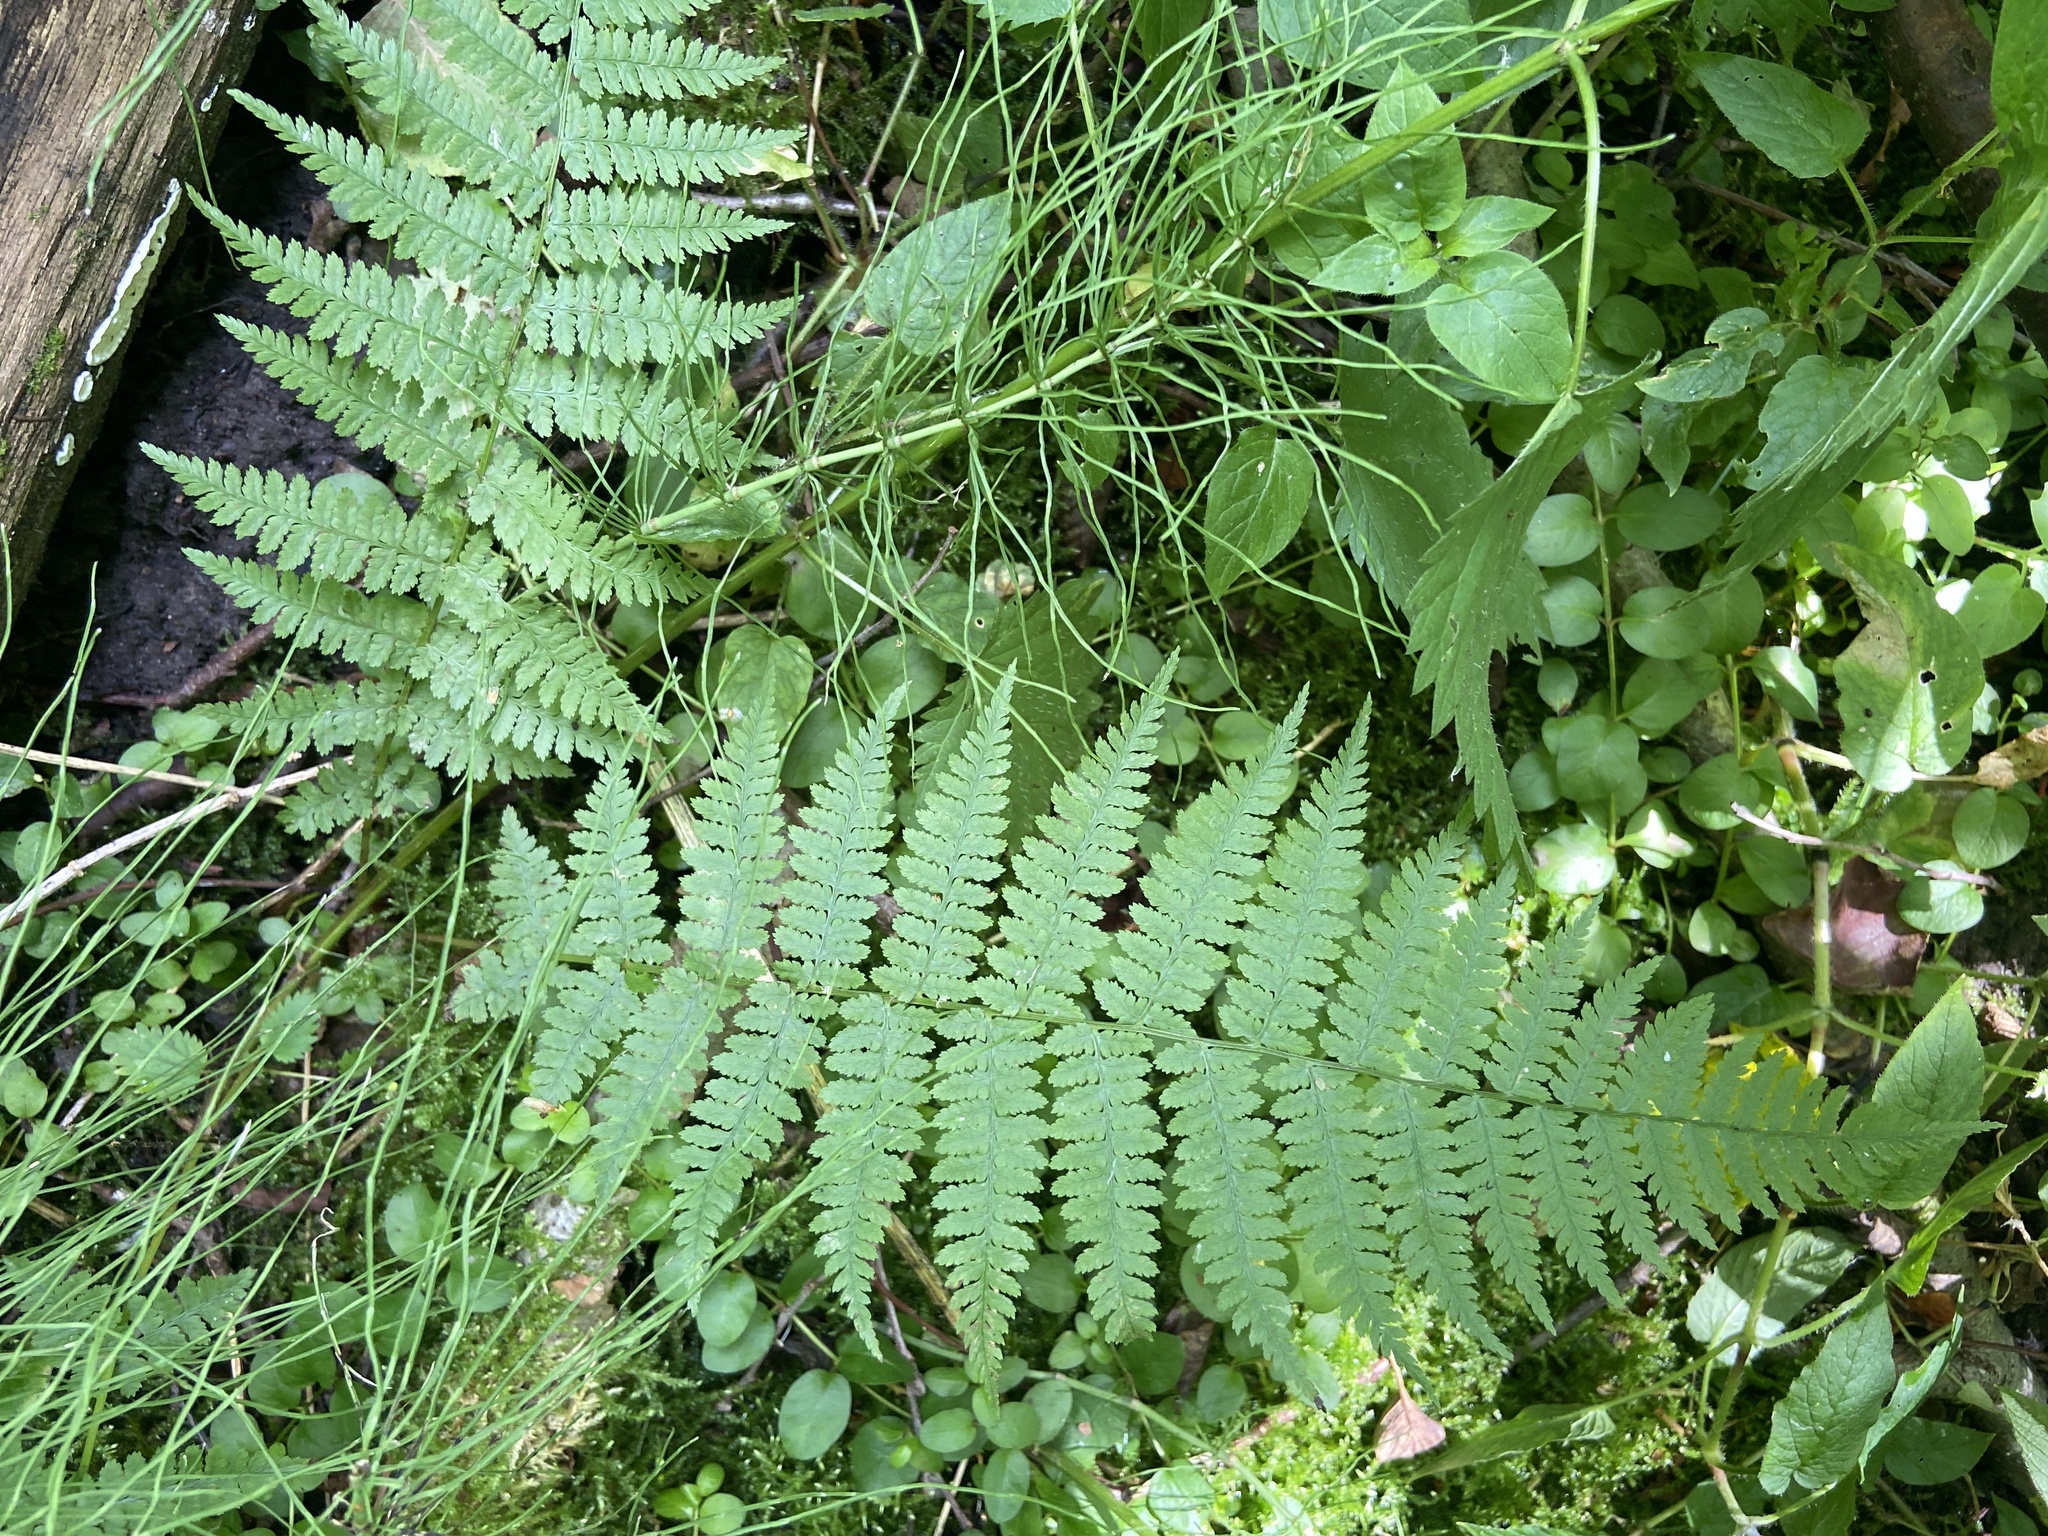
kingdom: Plantae
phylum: Tracheophyta
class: Polypodiopsida
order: Polypodiales
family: Athyriaceae
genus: Athyrium
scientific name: Athyrium filix-femina
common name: Lady fern
